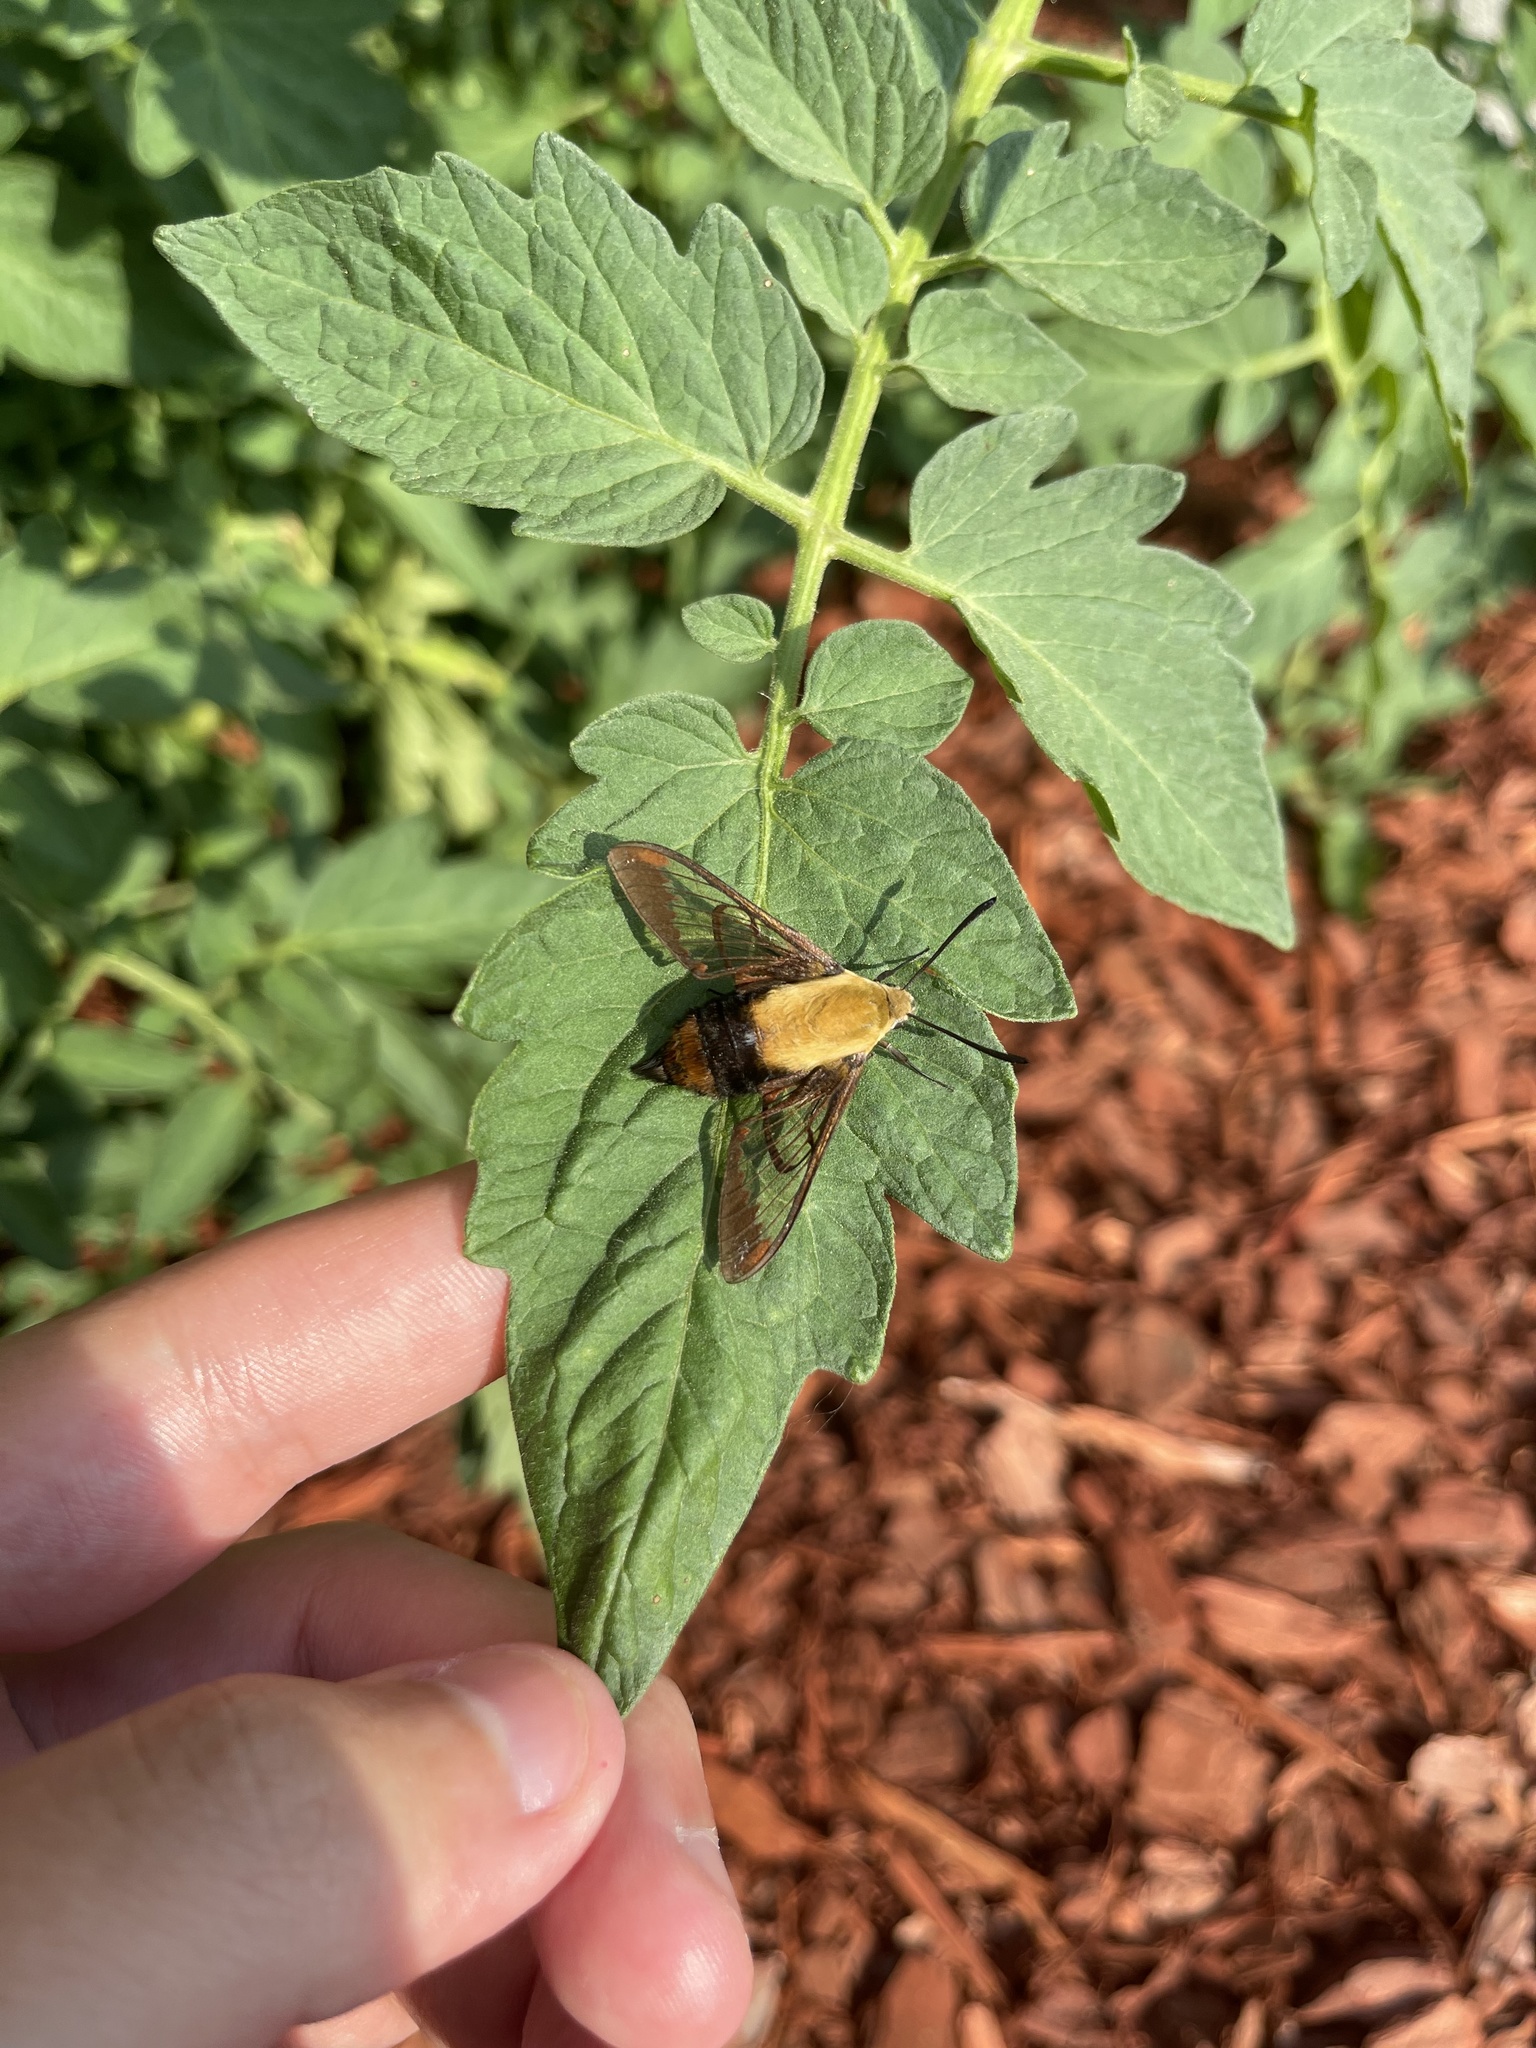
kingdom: Animalia
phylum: Arthropoda
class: Insecta
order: Lepidoptera
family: Sphingidae
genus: Hemaris
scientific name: Hemaris diffinis
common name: Bumblebee moth
